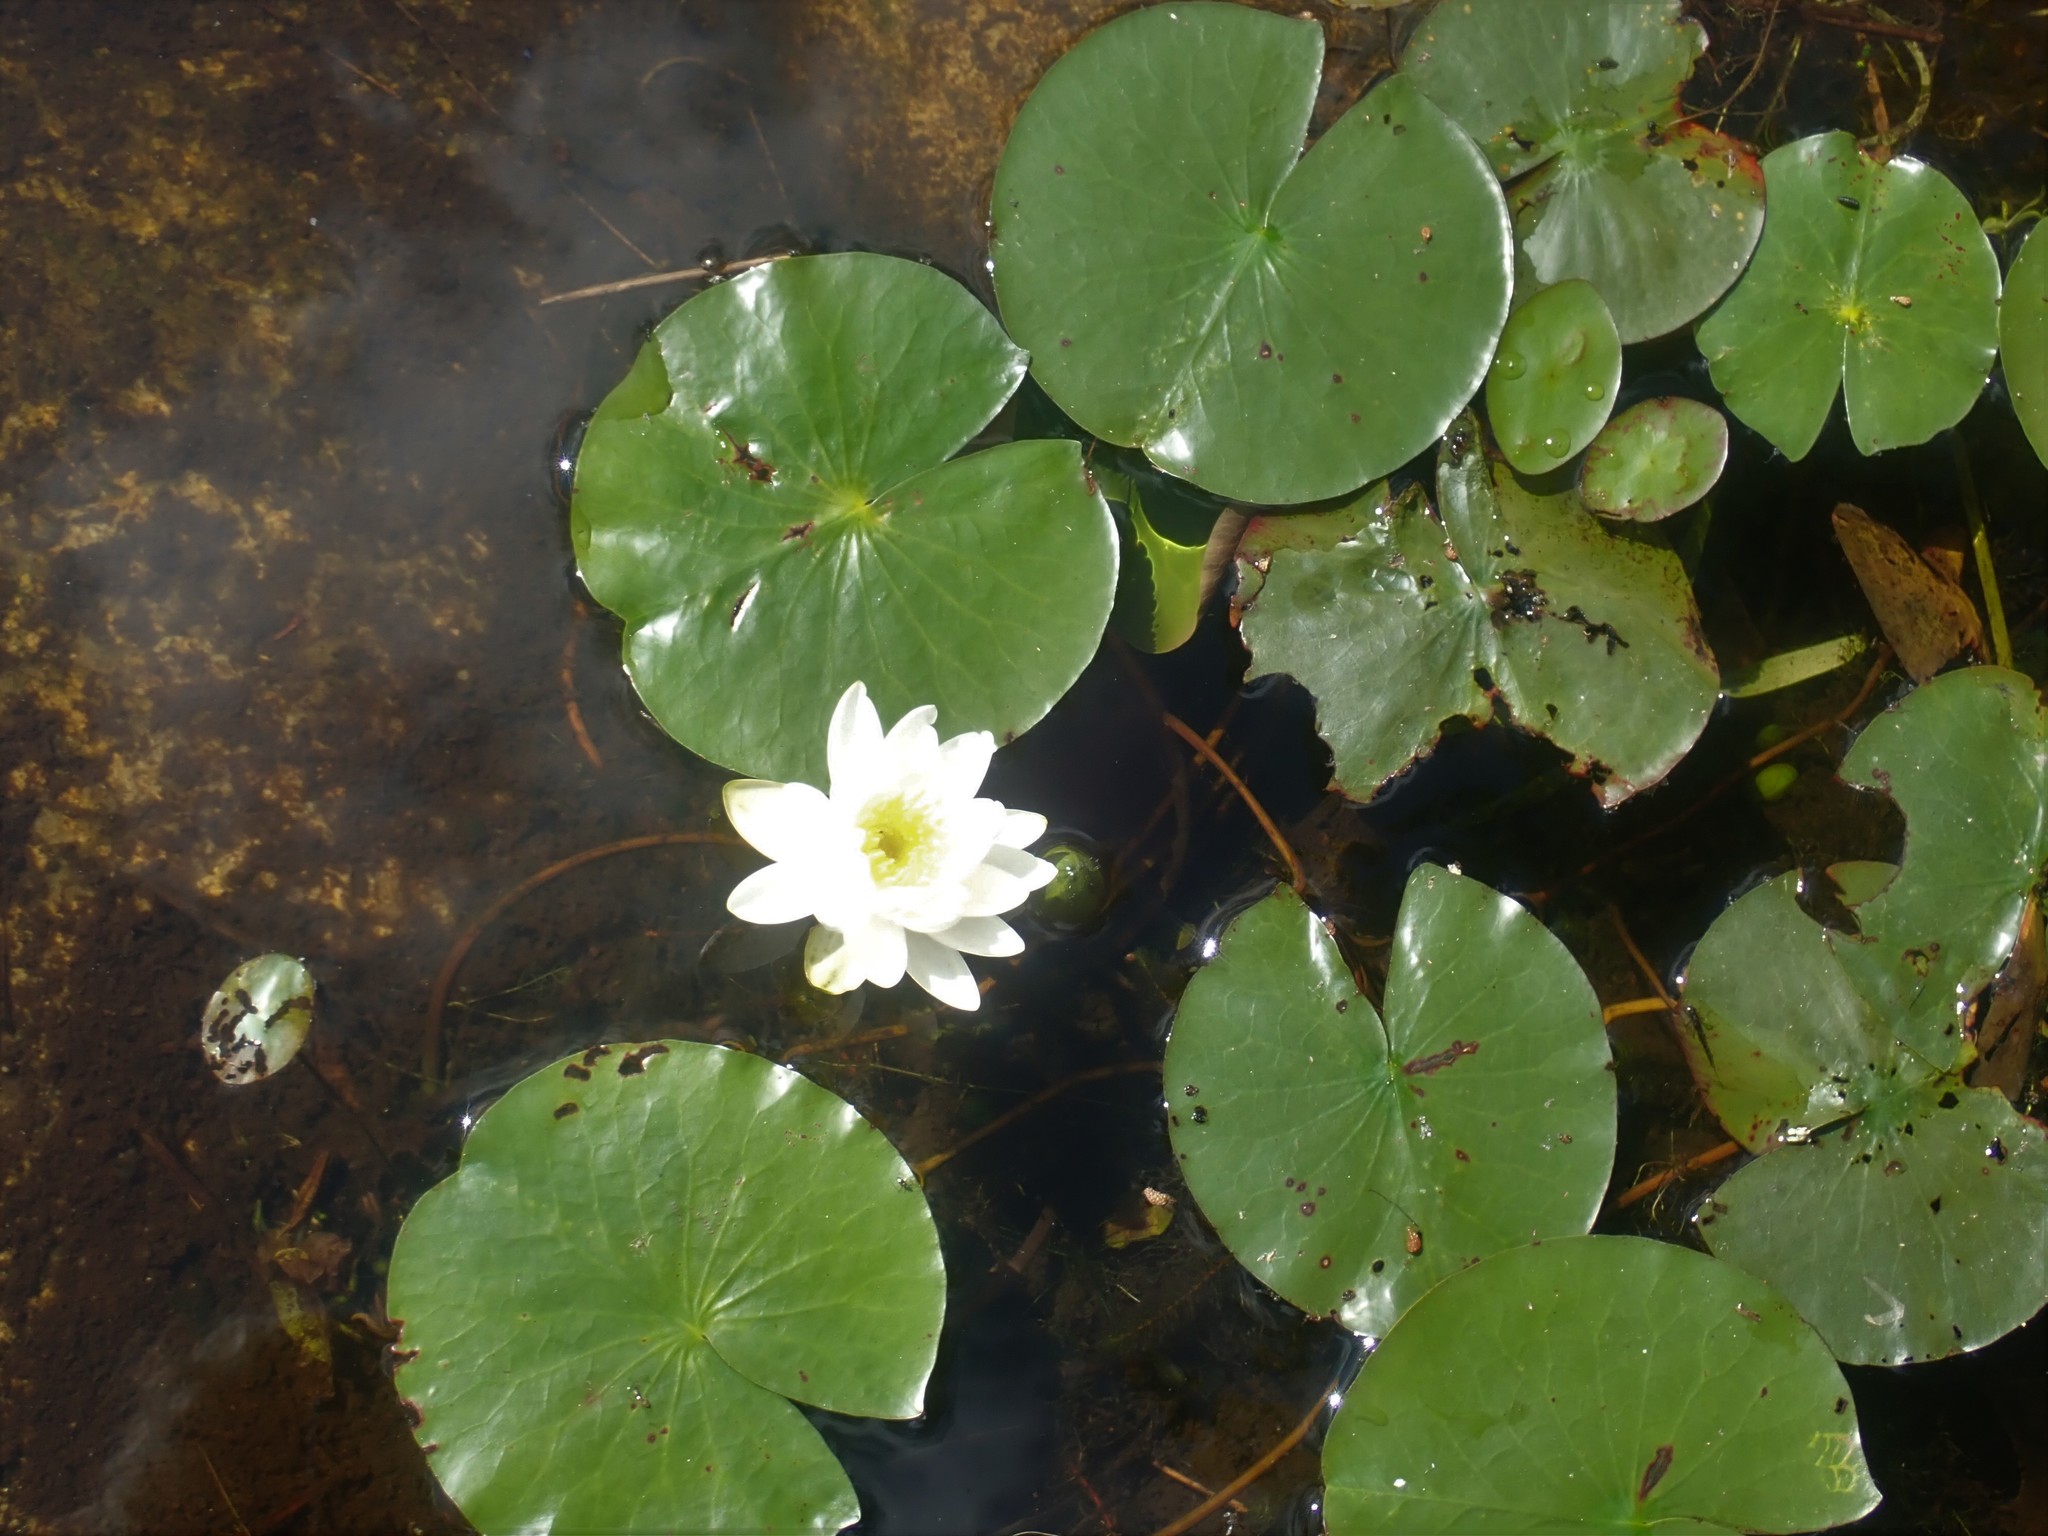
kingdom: Plantae
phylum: Tracheophyta
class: Magnoliopsida
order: Nymphaeales
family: Nymphaeaceae
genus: Nymphaea
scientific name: Nymphaea odorata
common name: Fragrant water-lily
